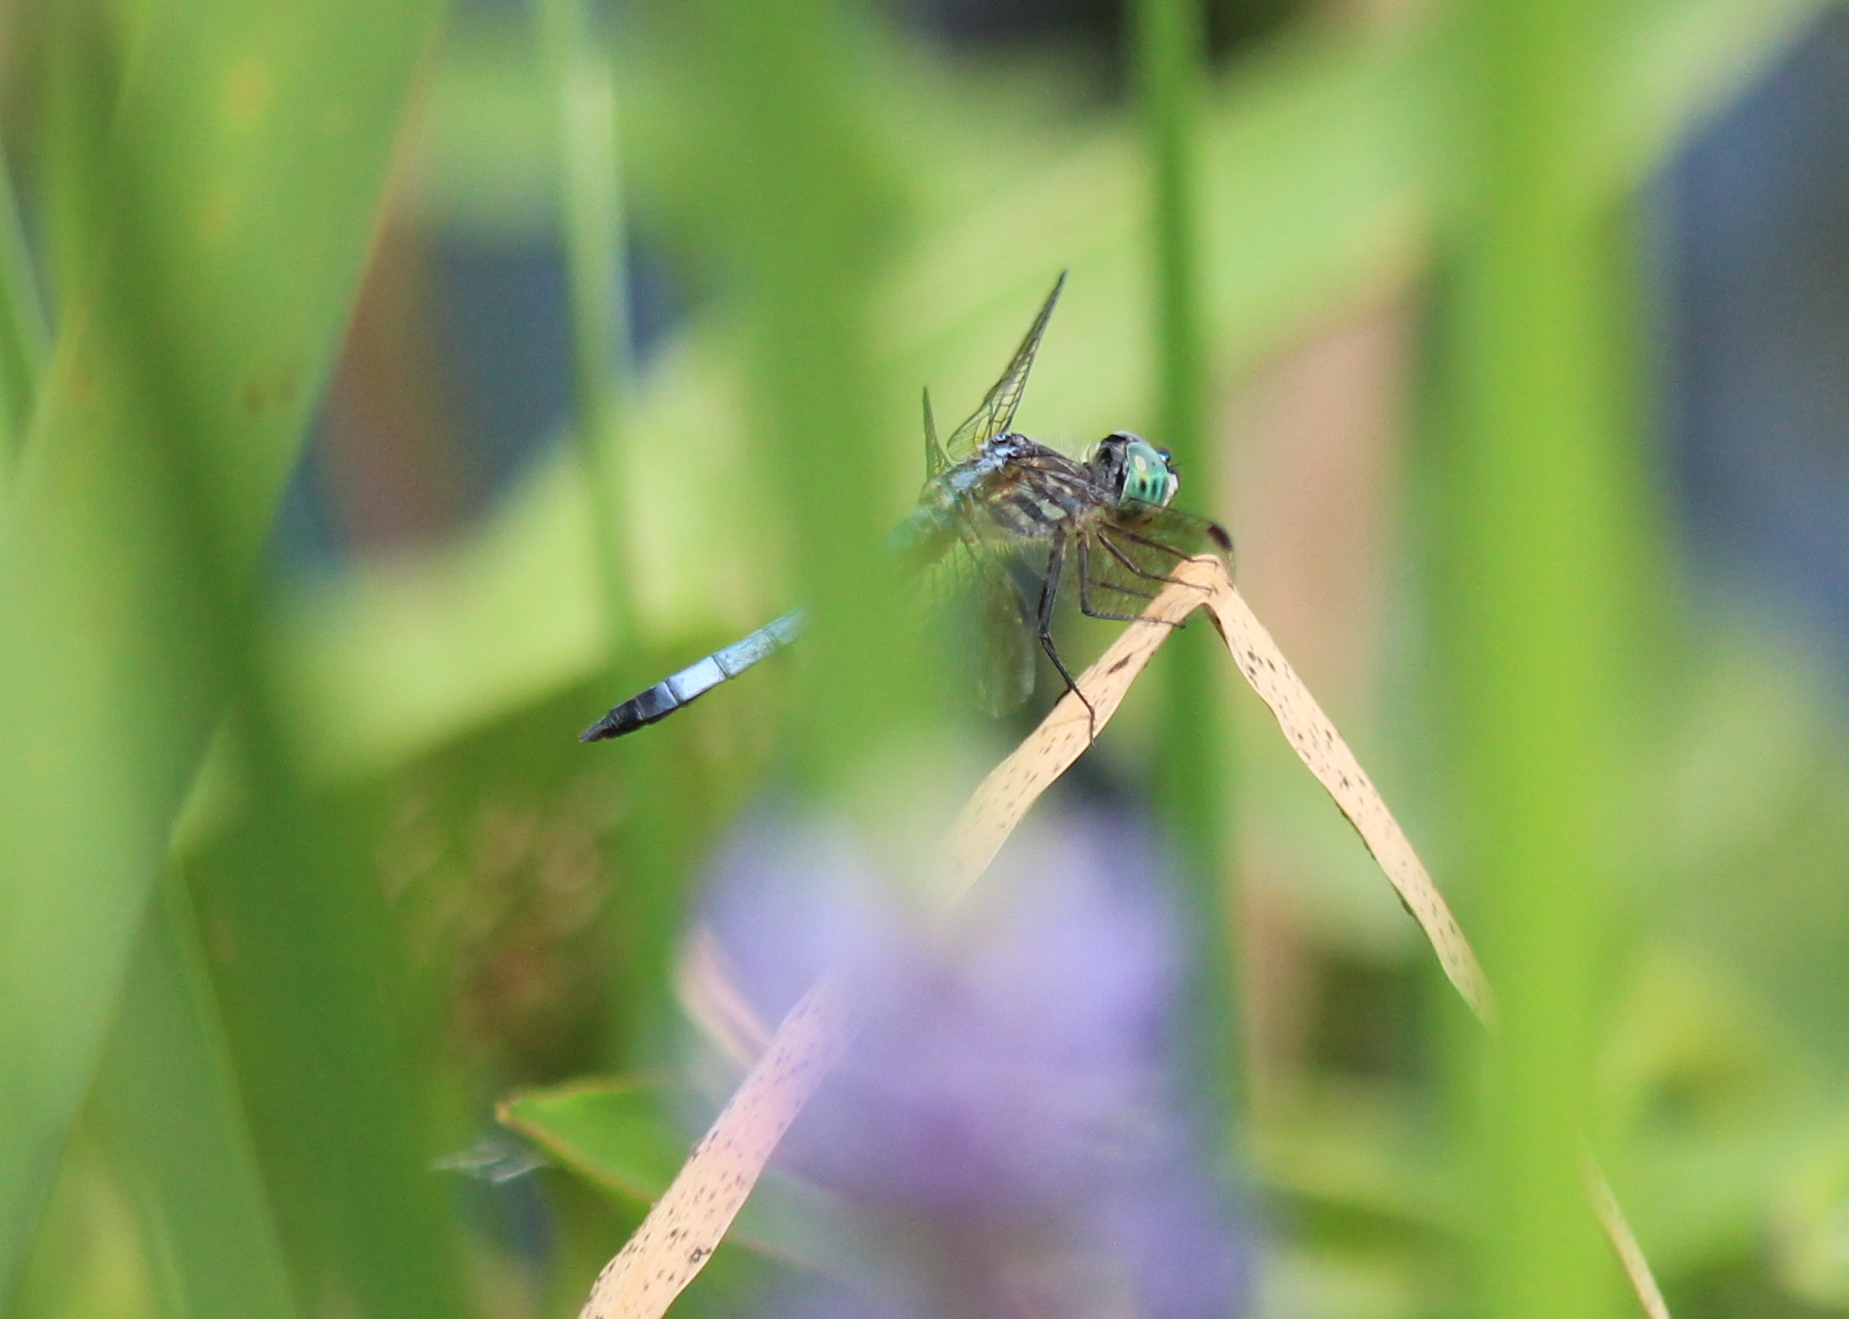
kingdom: Animalia
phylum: Arthropoda
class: Insecta
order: Odonata
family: Libellulidae
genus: Pachydiplax
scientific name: Pachydiplax longipennis
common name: Blue dasher
